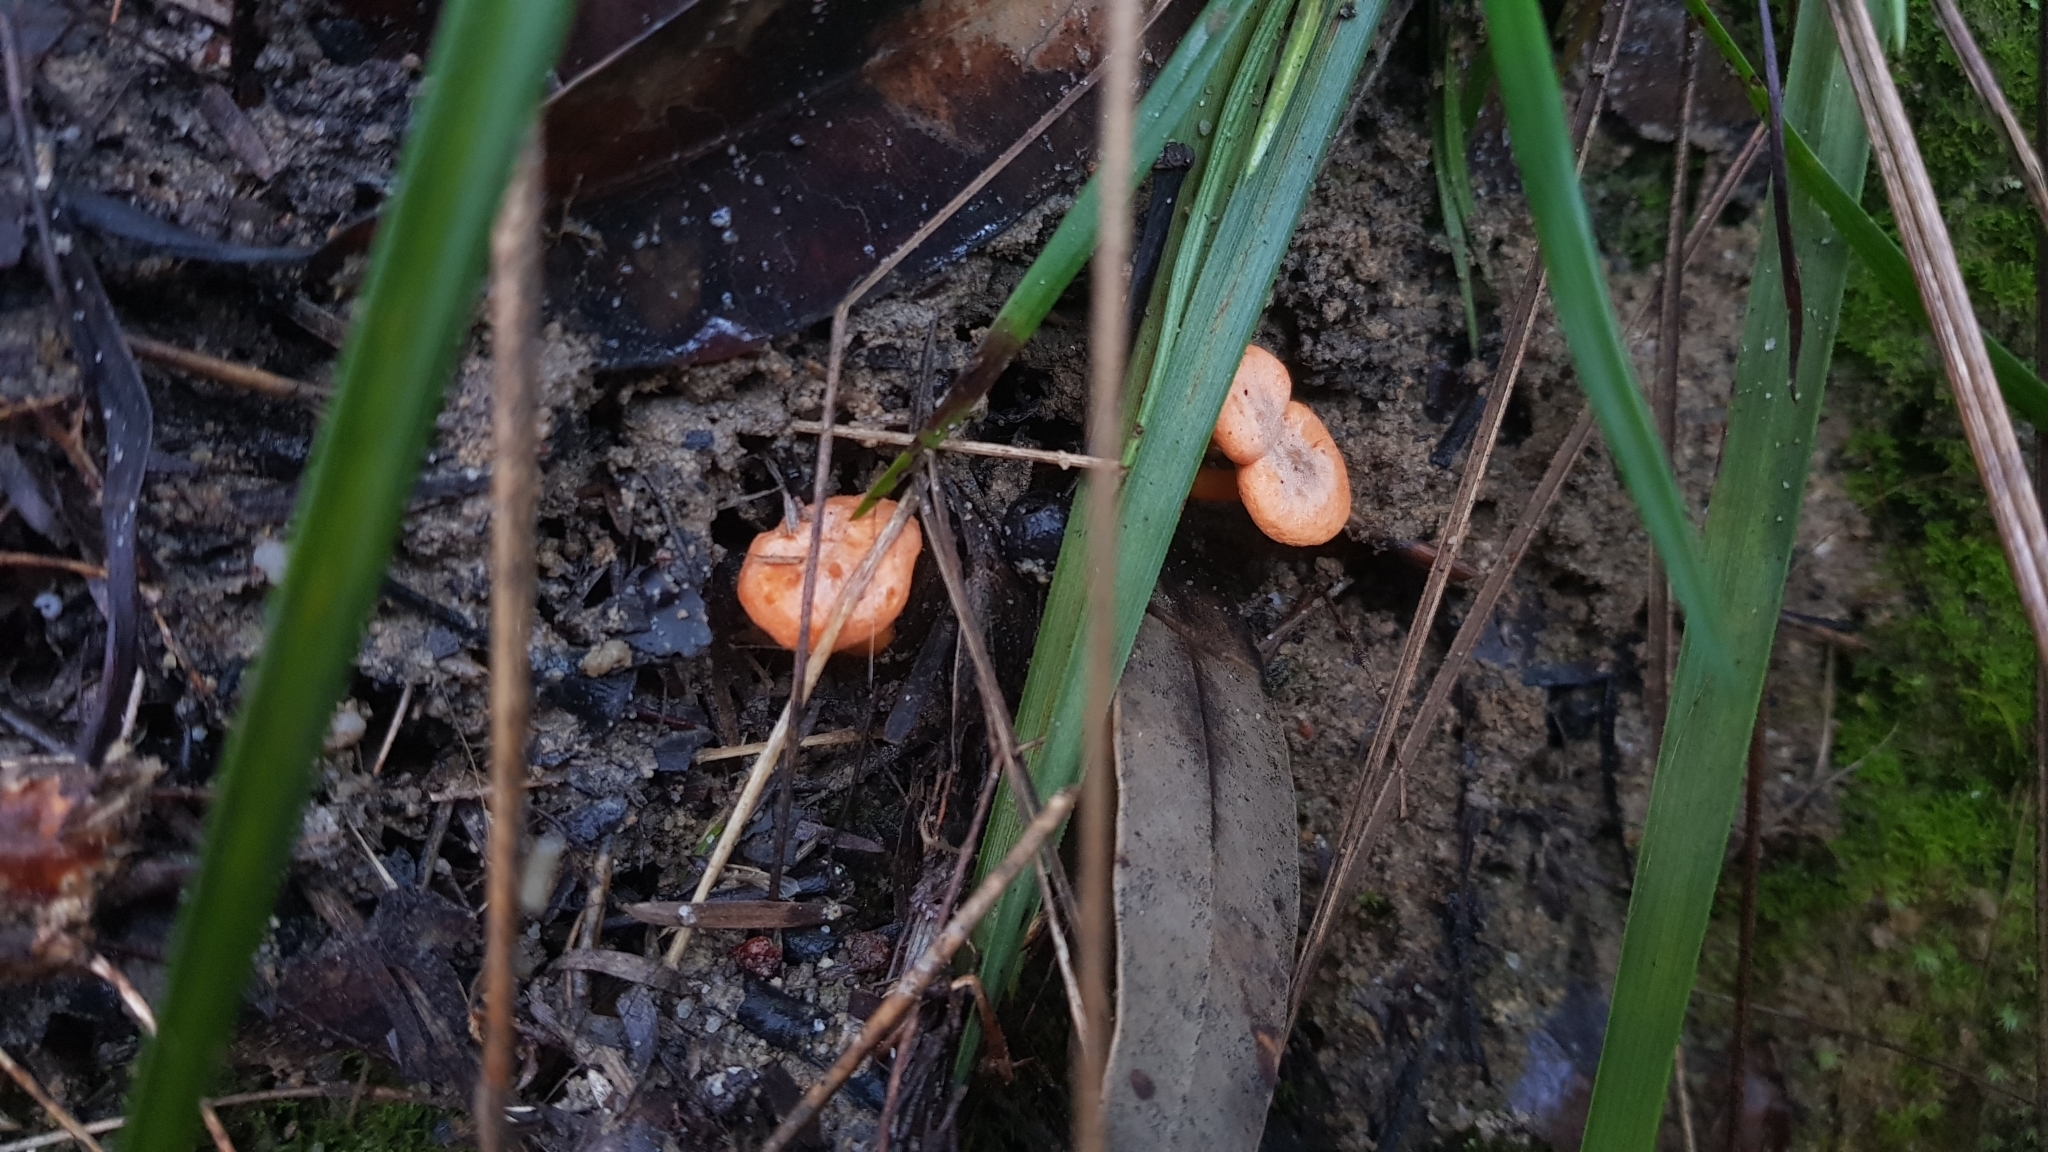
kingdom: Fungi
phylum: Basidiomycota
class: Agaricomycetes
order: Cantharellales
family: Hydnaceae
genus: Cantharellus
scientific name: Cantharellus
